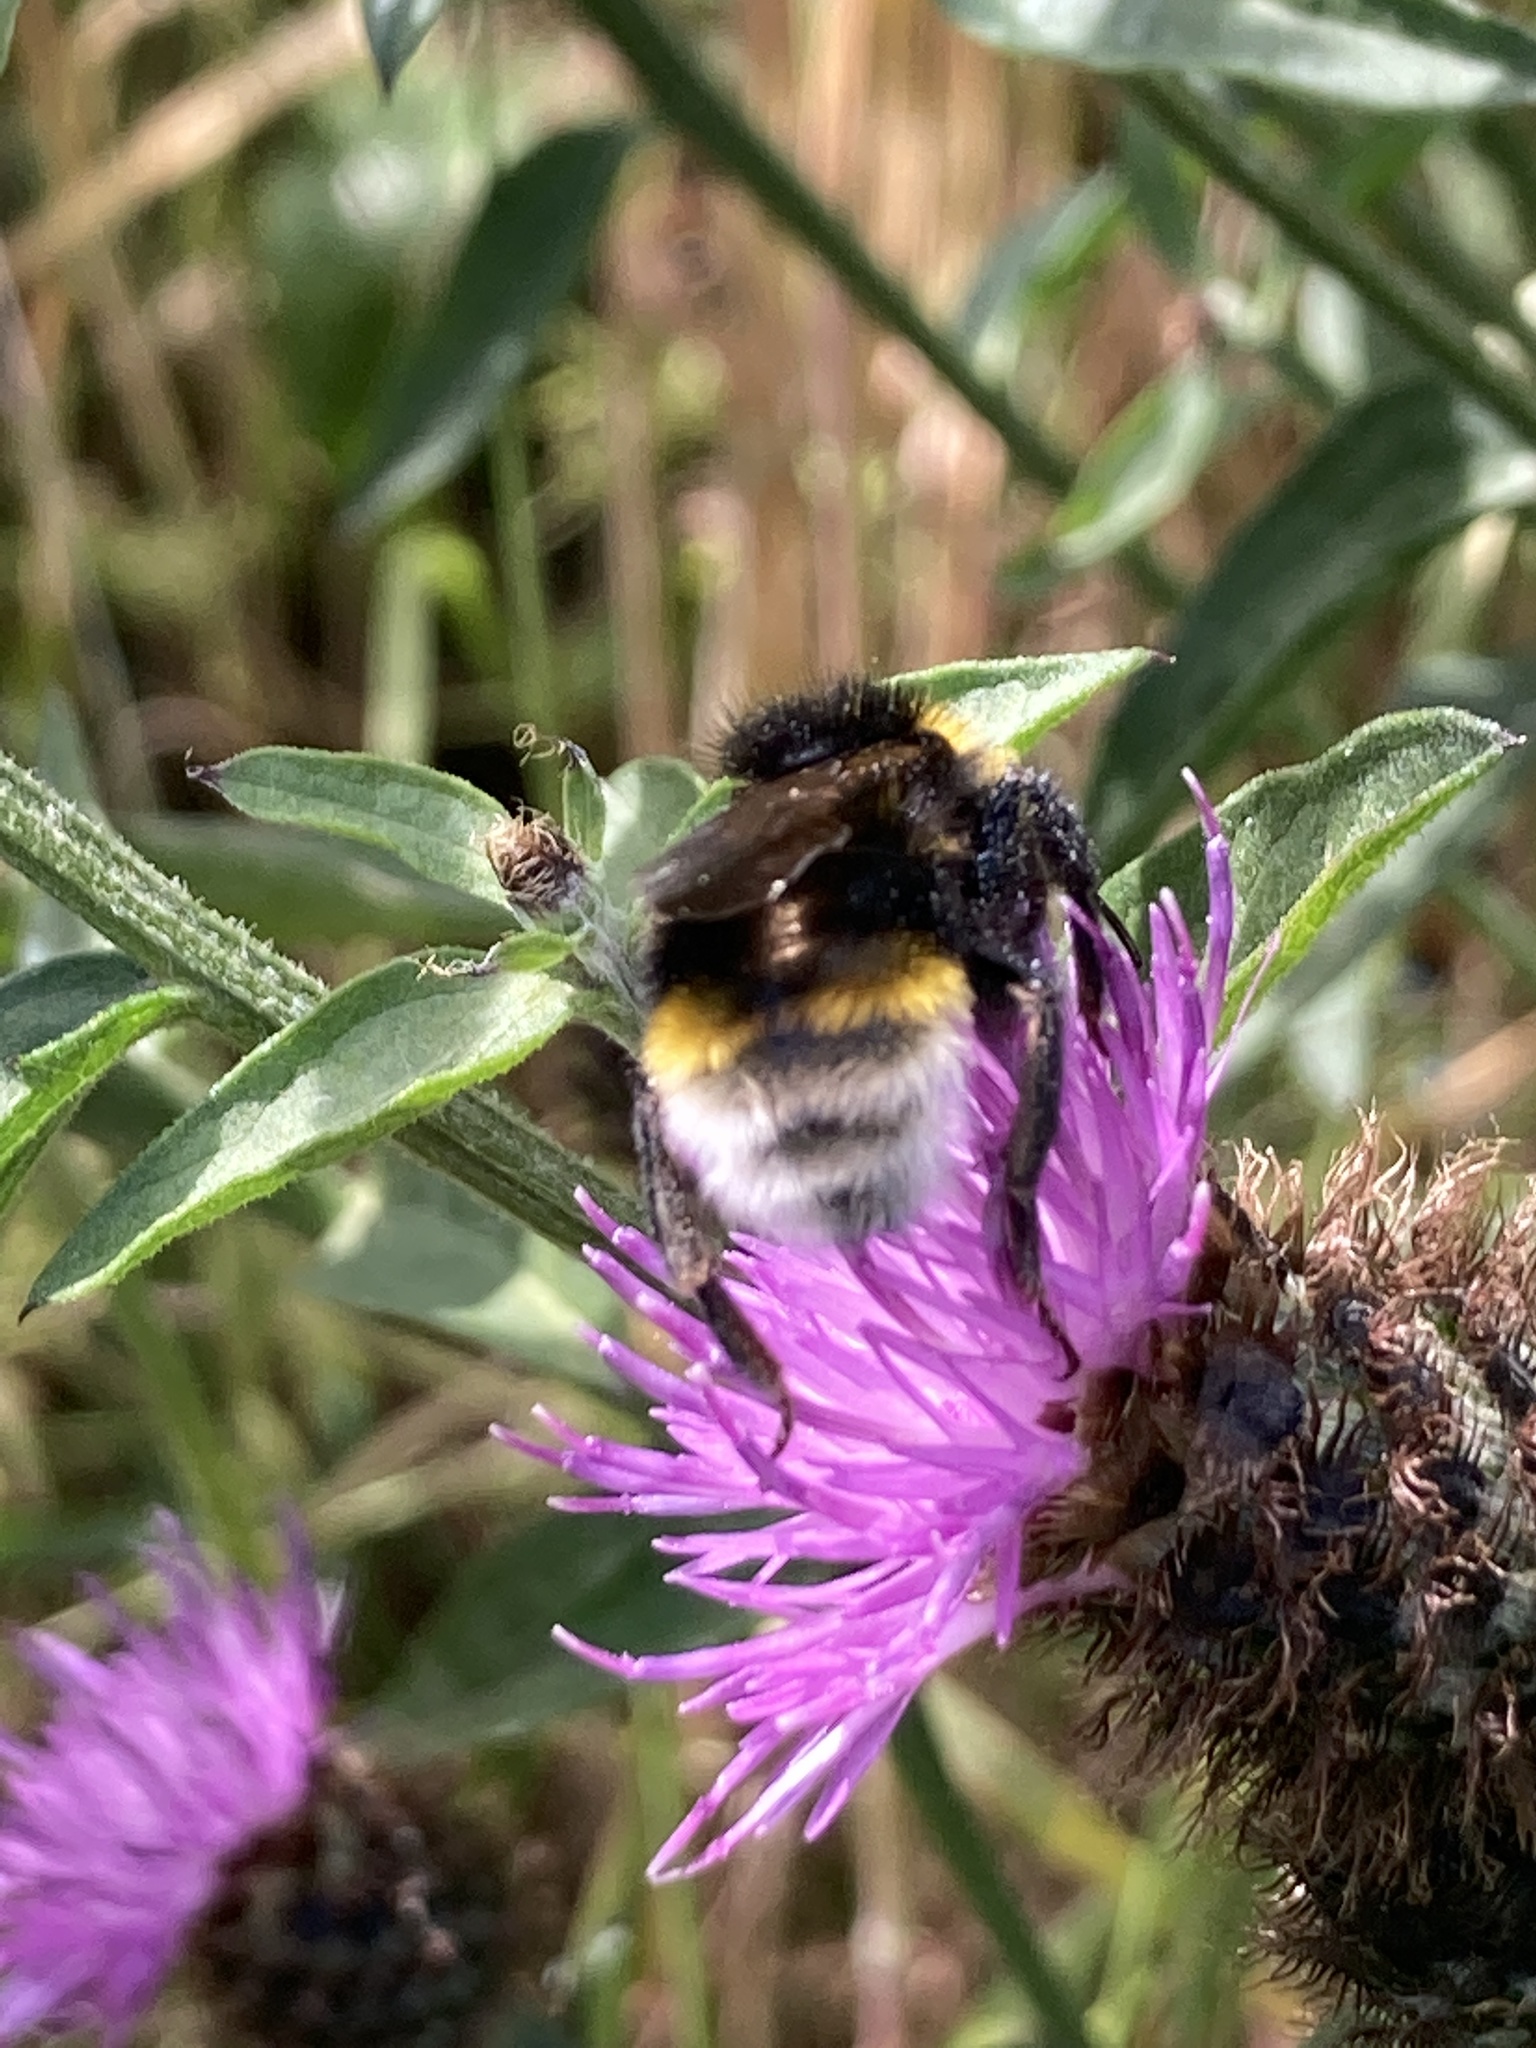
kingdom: Animalia
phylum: Arthropoda
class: Insecta
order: Hymenoptera
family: Apidae
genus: Bombus
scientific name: Bombus vestalis
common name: Vestal cuckoo bee
